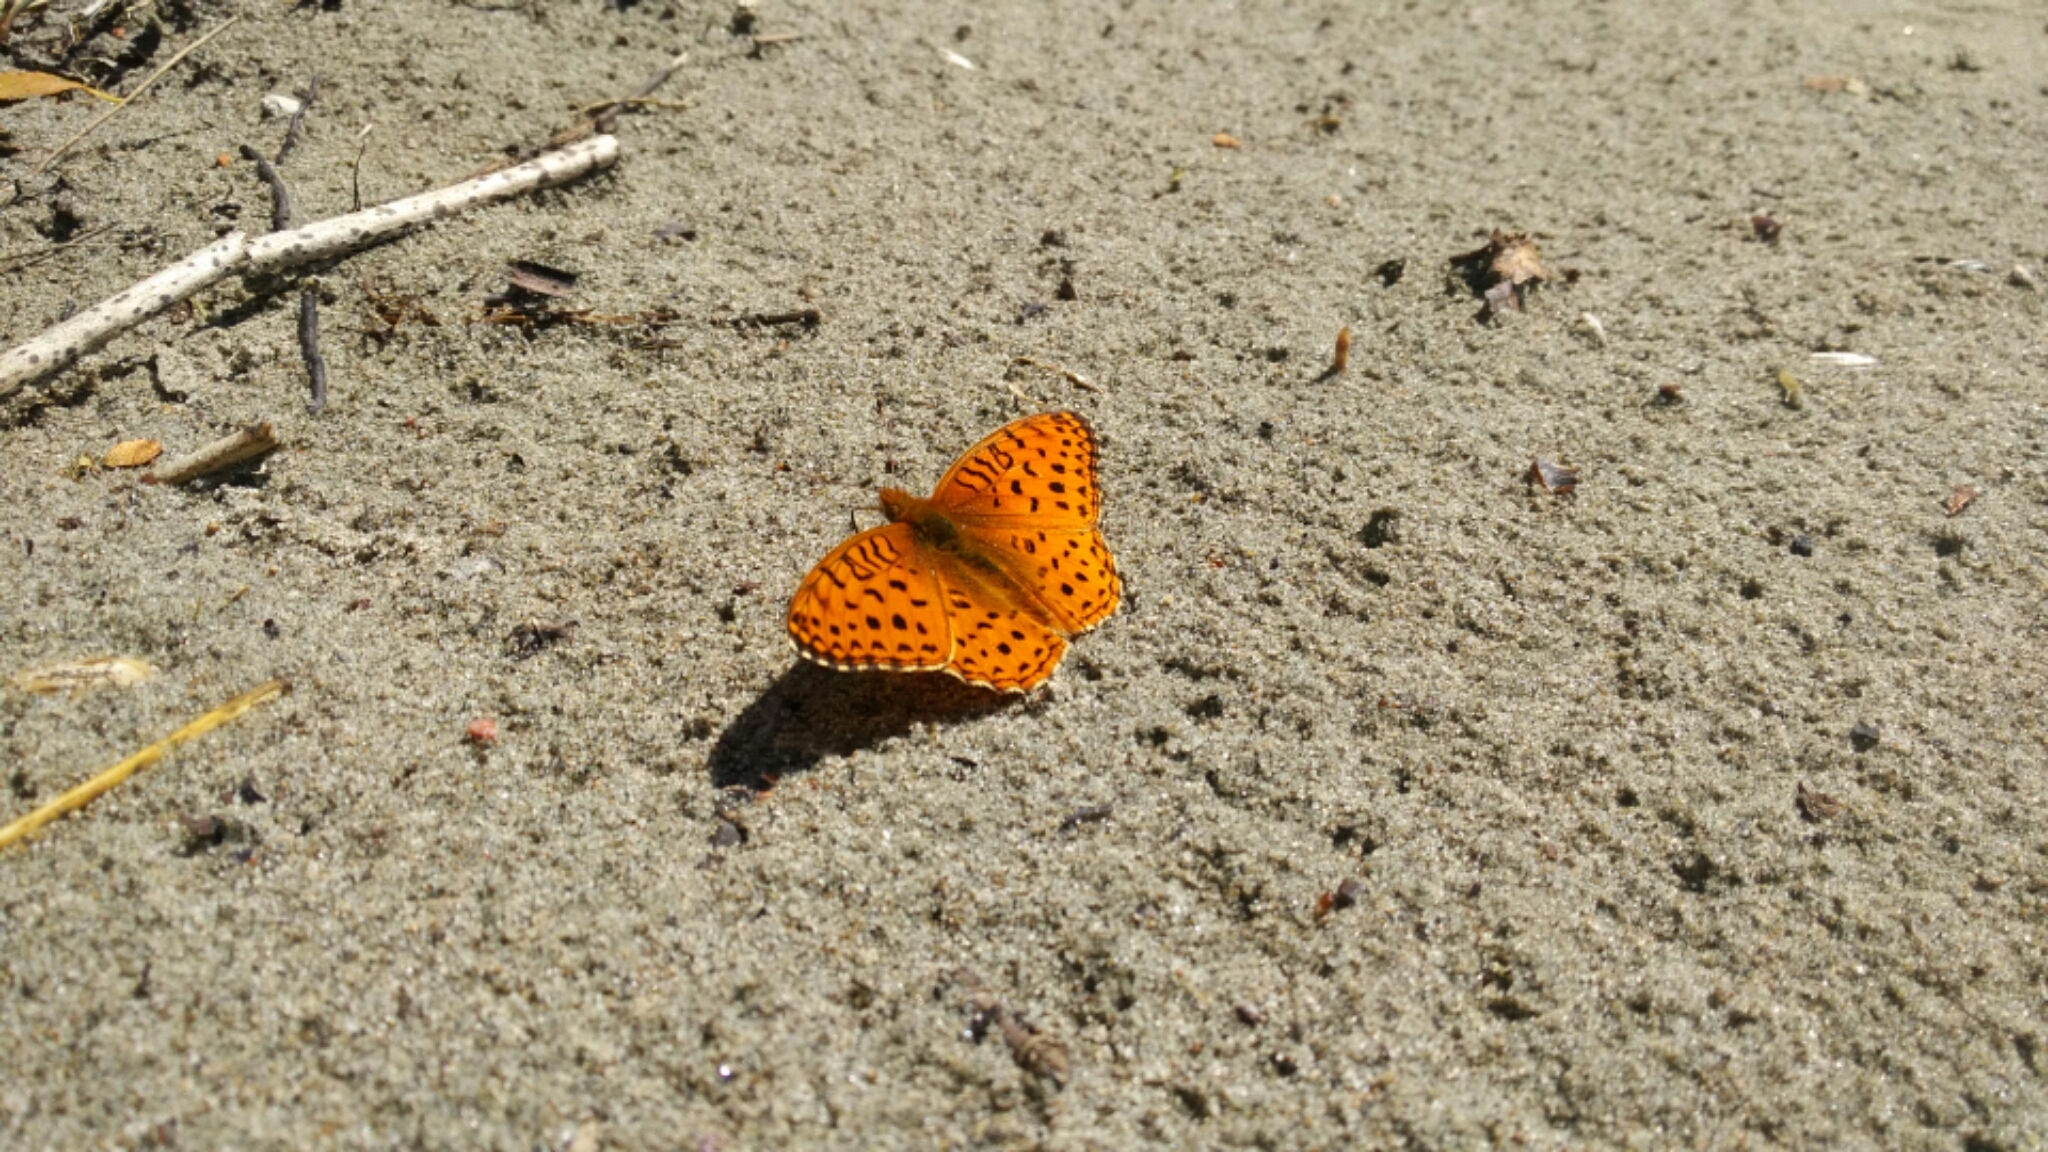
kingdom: Animalia
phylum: Arthropoda
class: Insecta
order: Lepidoptera
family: Nymphalidae
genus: Speyeria
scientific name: Speyeria aphrodite
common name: Aphrodite friitllary
